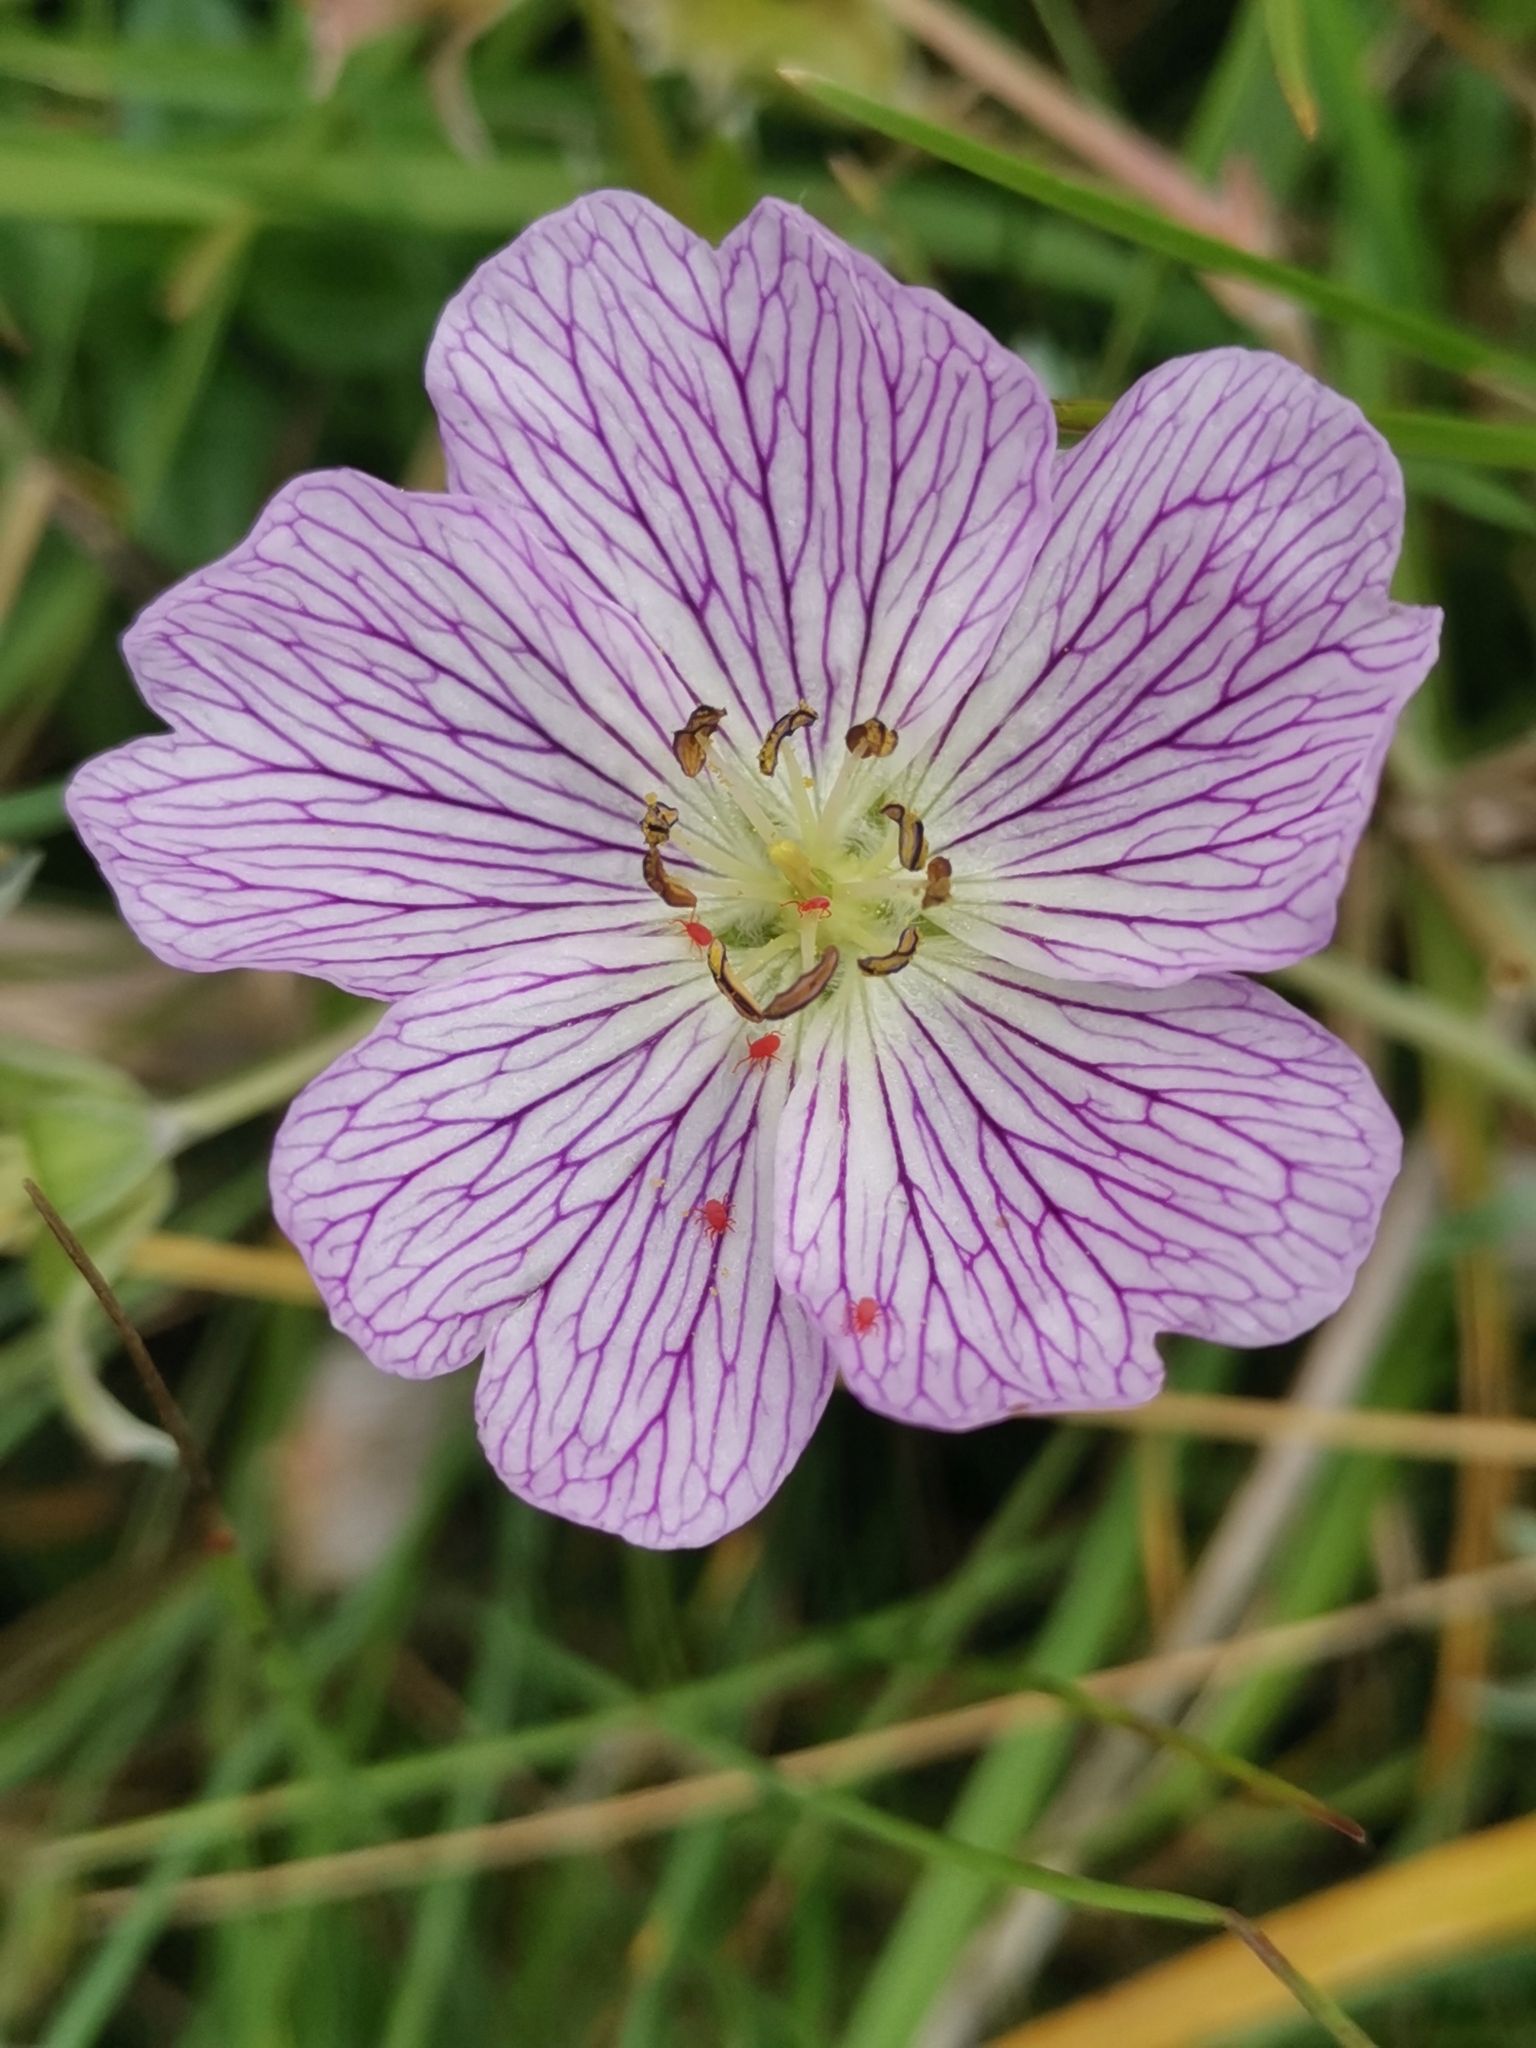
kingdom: Plantae
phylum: Tracheophyta
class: Magnoliopsida
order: Geraniales
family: Geraniaceae
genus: Geranium
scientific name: Geranium argenteum
